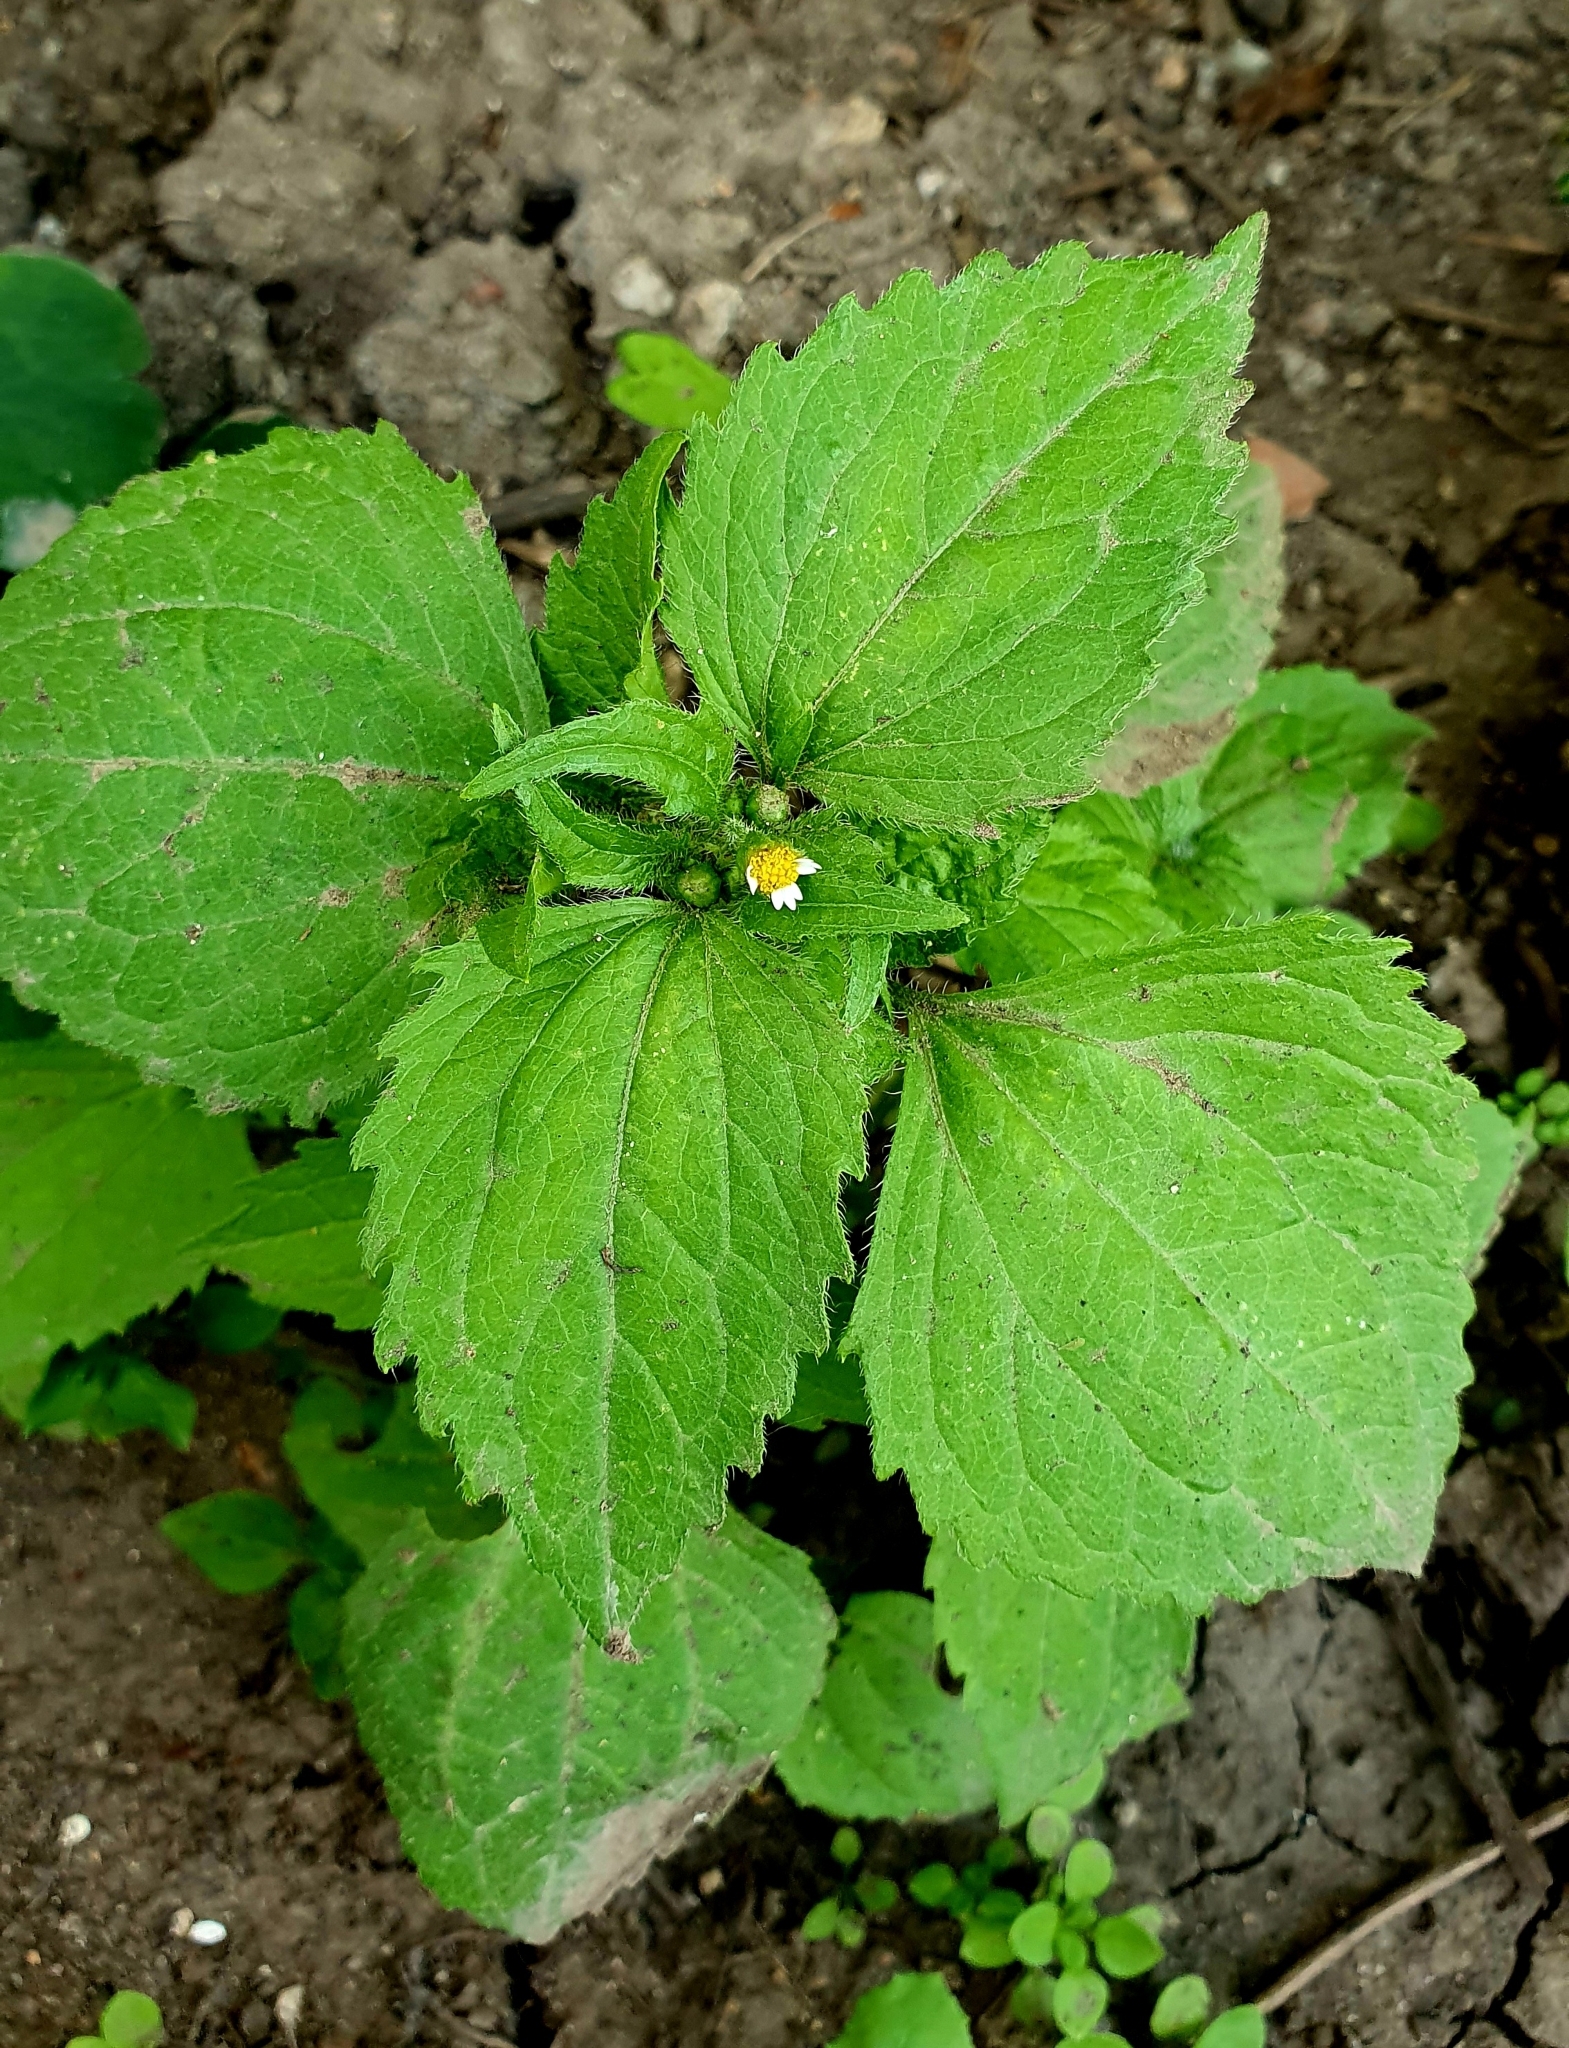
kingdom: Plantae
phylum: Tracheophyta
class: Magnoliopsida
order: Asterales
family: Asteraceae
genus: Galinsoga
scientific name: Galinsoga quadriradiata
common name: Shaggy soldier
